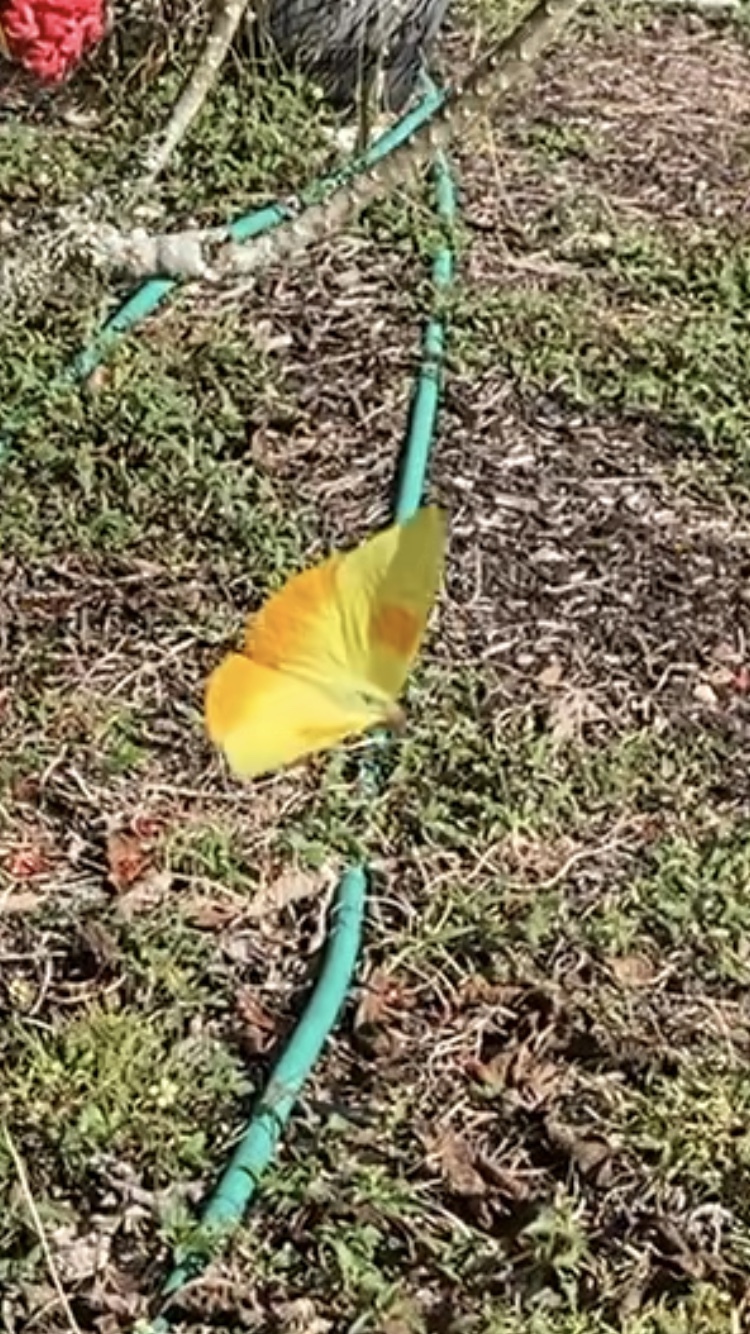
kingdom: Animalia
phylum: Arthropoda
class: Insecta
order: Lepidoptera
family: Pieridae
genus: Phoebis
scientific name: Phoebis philea
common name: Orange-barred giant sulphur
